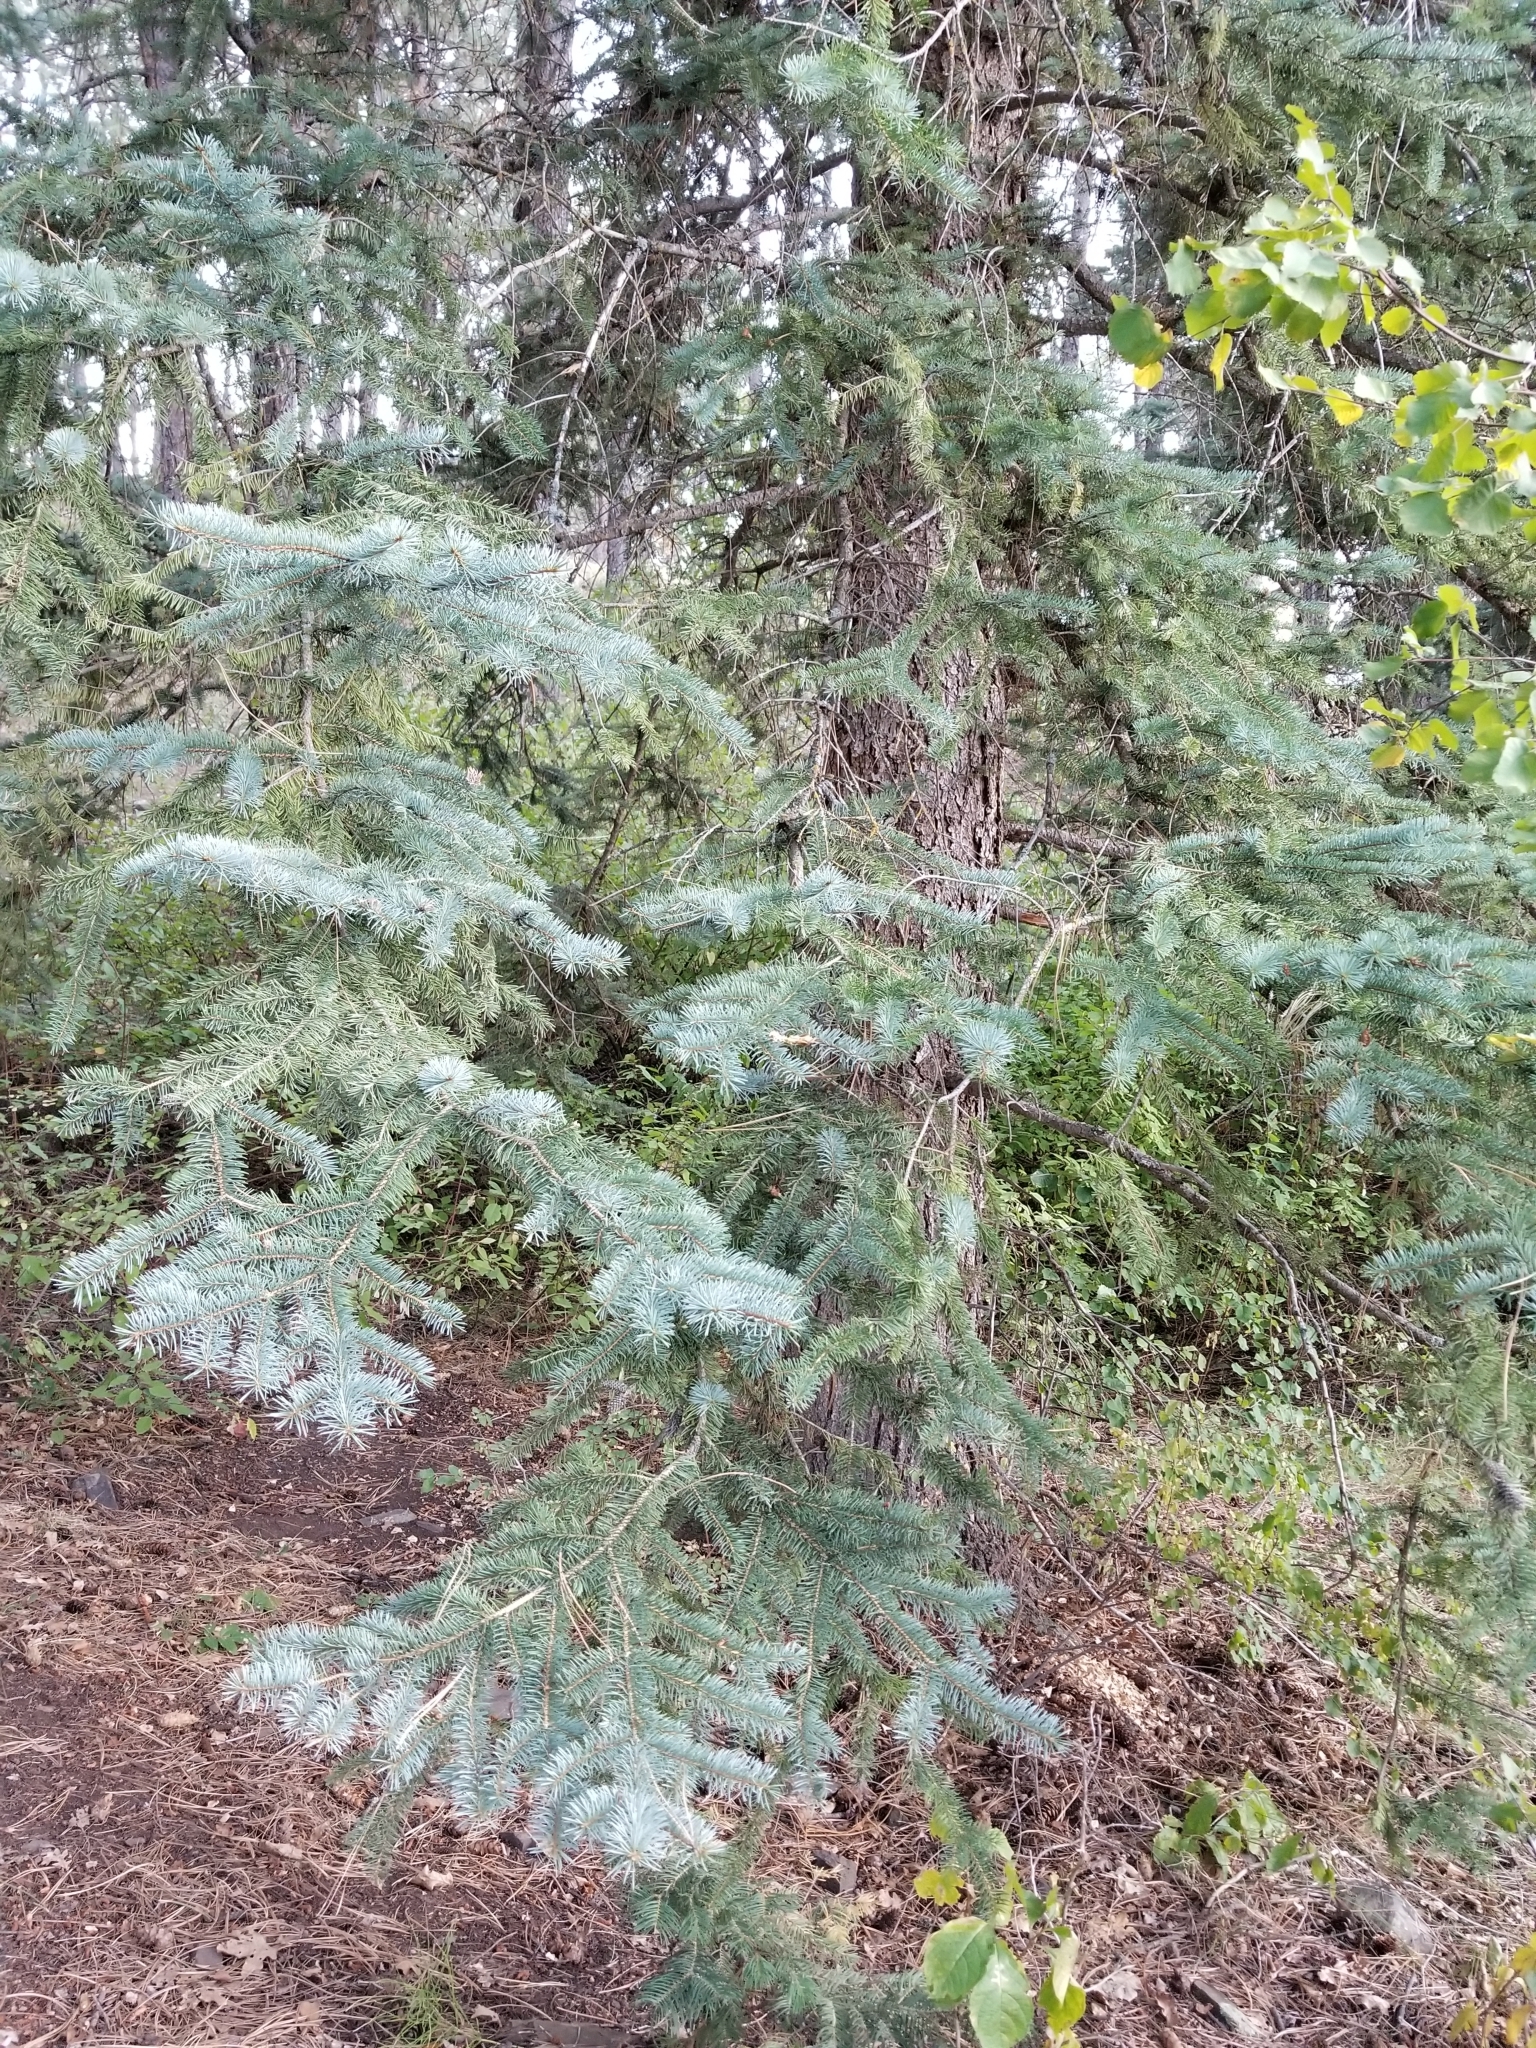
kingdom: Plantae
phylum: Tracheophyta
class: Pinopsida
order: Pinales
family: Pinaceae
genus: Pseudotsuga
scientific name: Pseudotsuga menziesii
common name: Douglas fir
